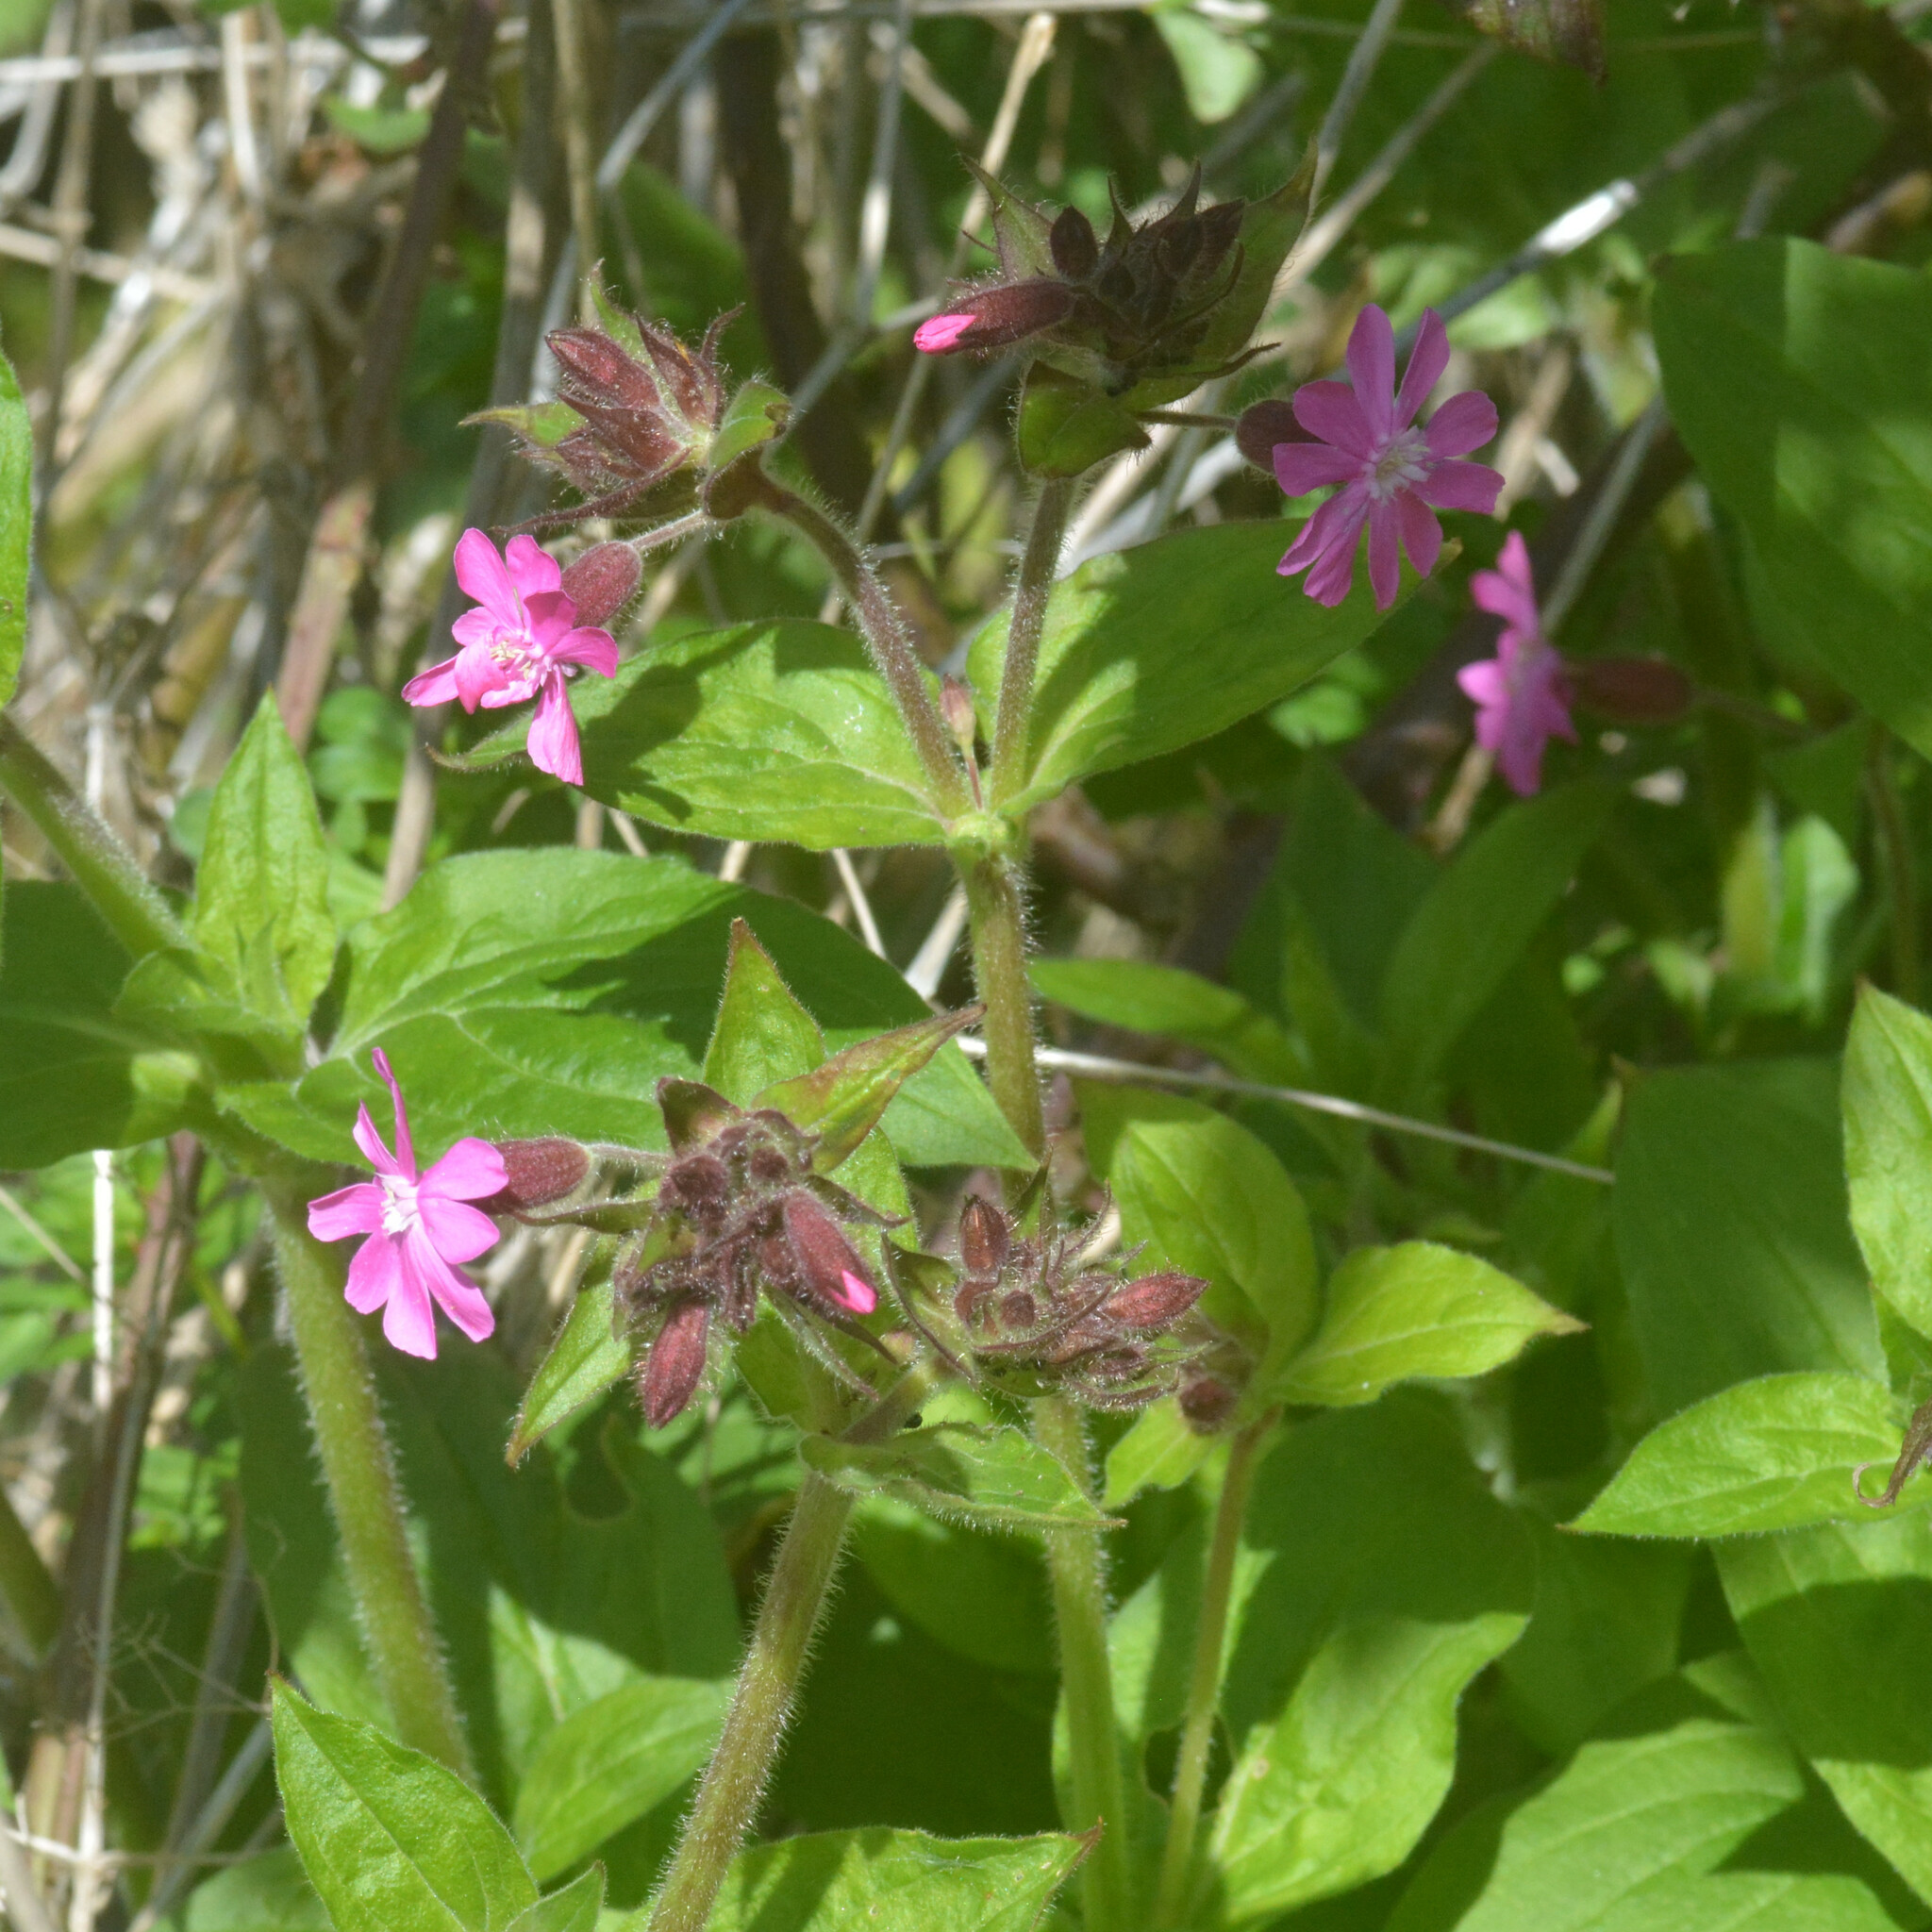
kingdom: Plantae
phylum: Tracheophyta
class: Magnoliopsida
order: Caryophyllales
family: Caryophyllaceae
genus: Silene
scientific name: Silene dioica
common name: Red campion
